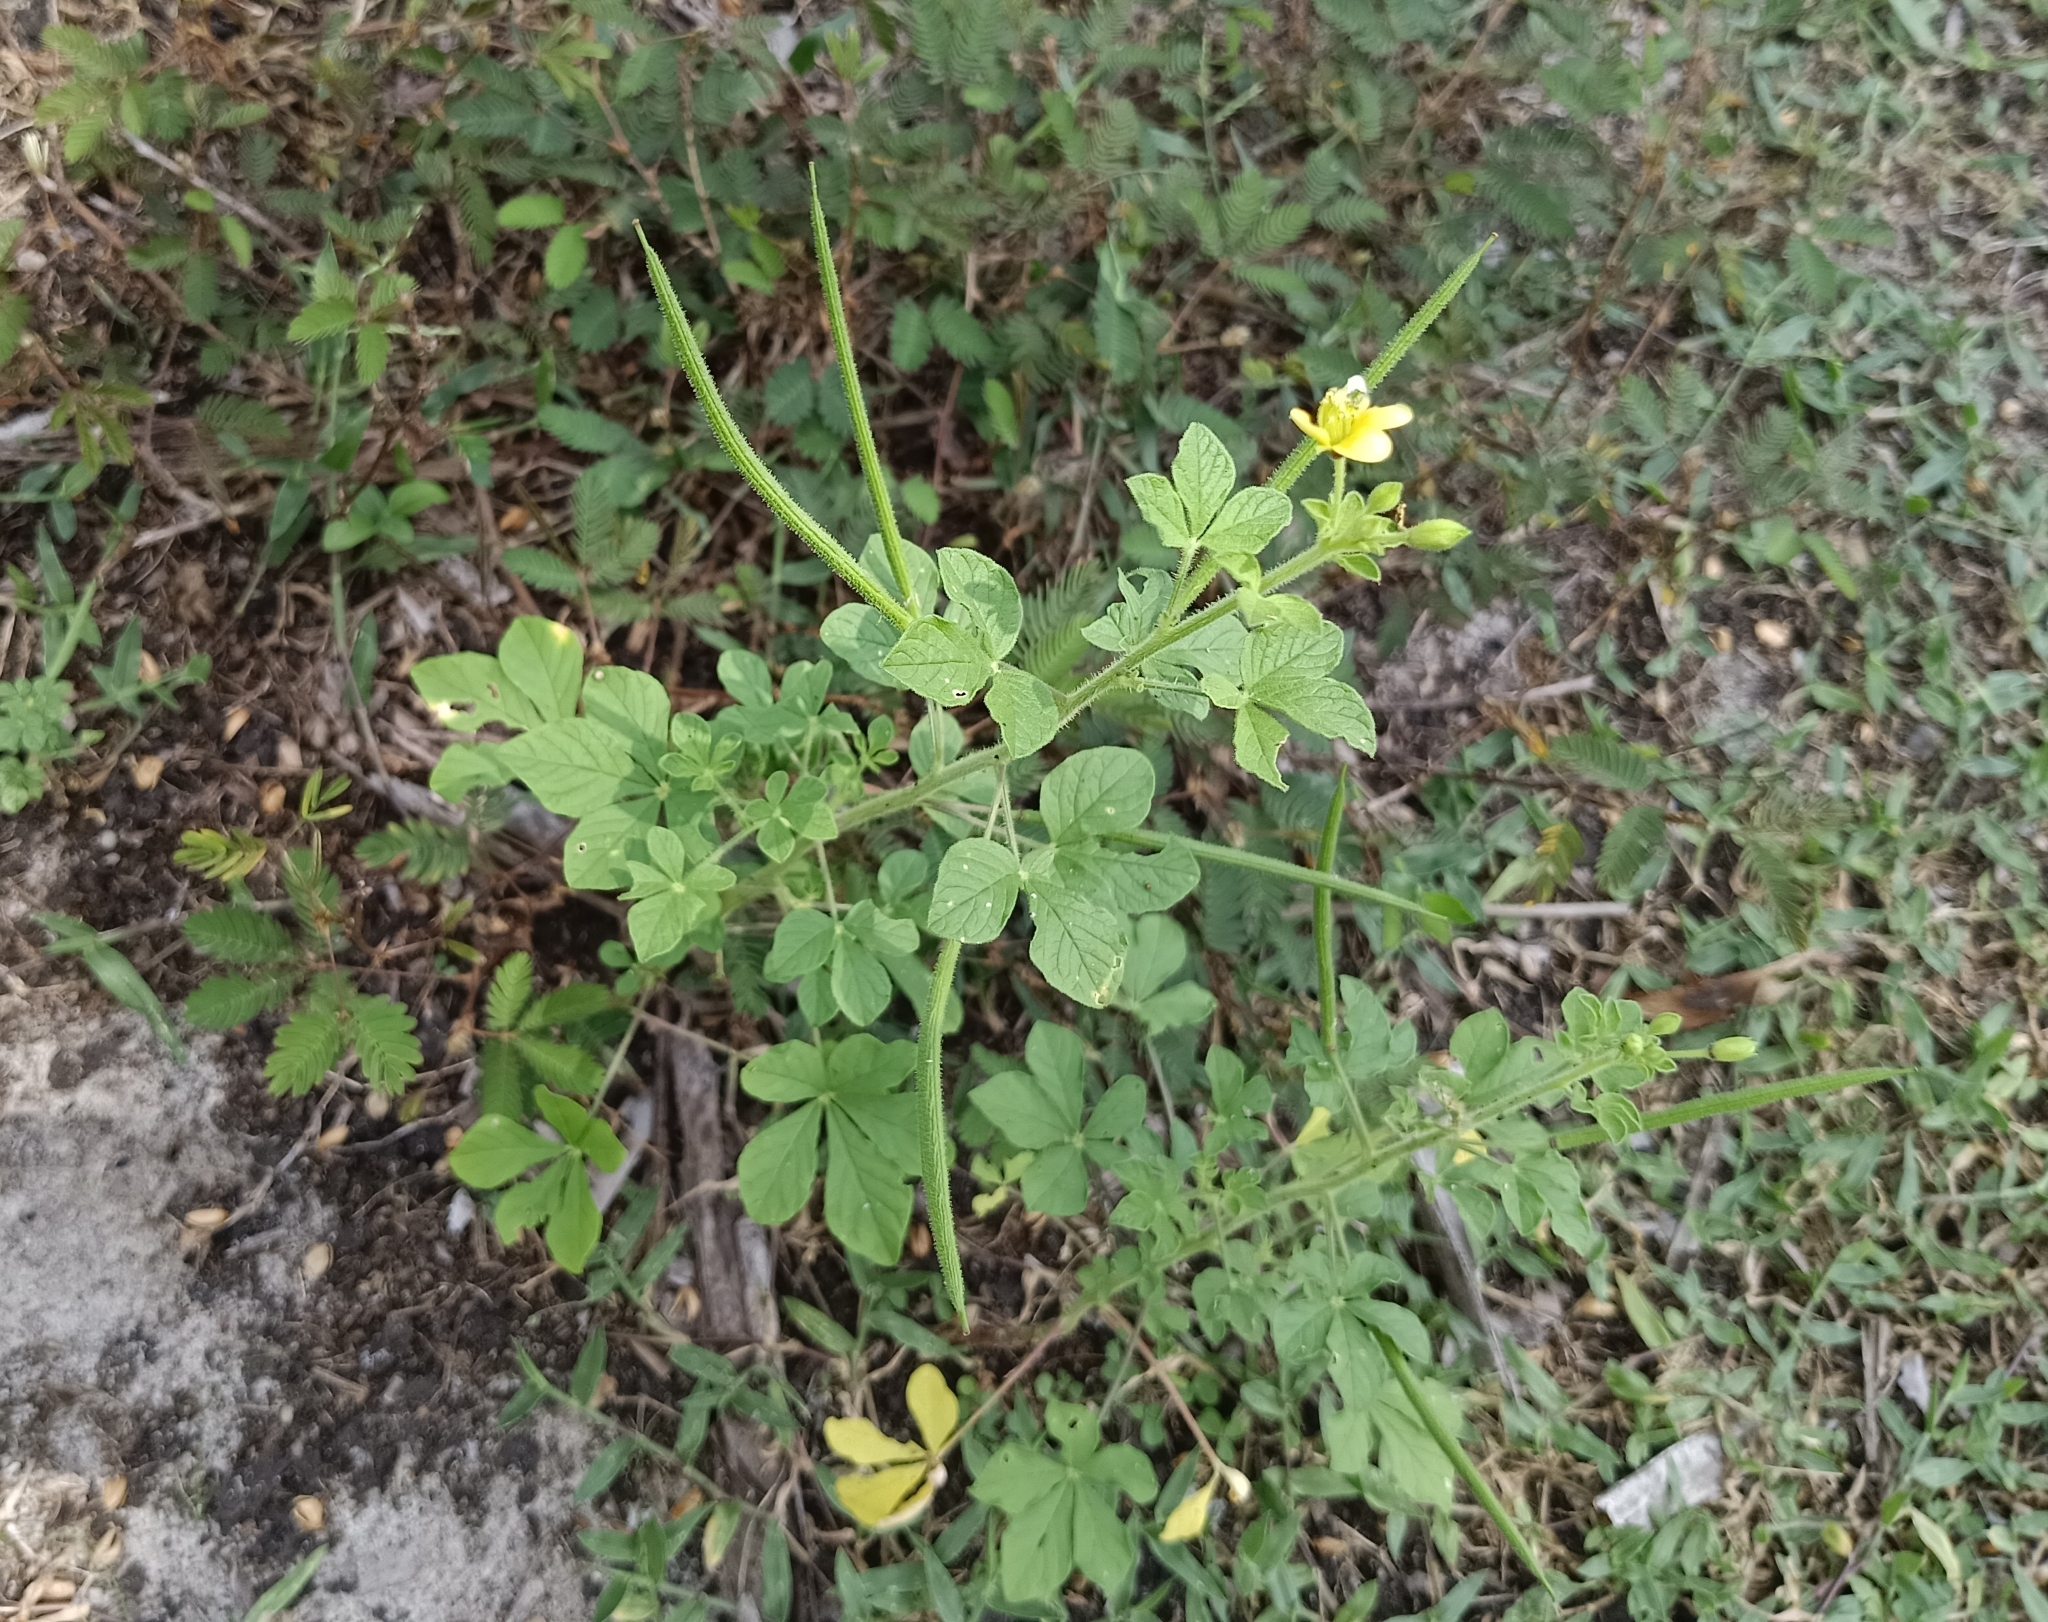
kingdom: Plantae
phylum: Tracheophyta
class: Magnoliopsida
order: Brassicales
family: Cleomaceae
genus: Arivela
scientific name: Arivela viscosa
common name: Asian spiderflower
